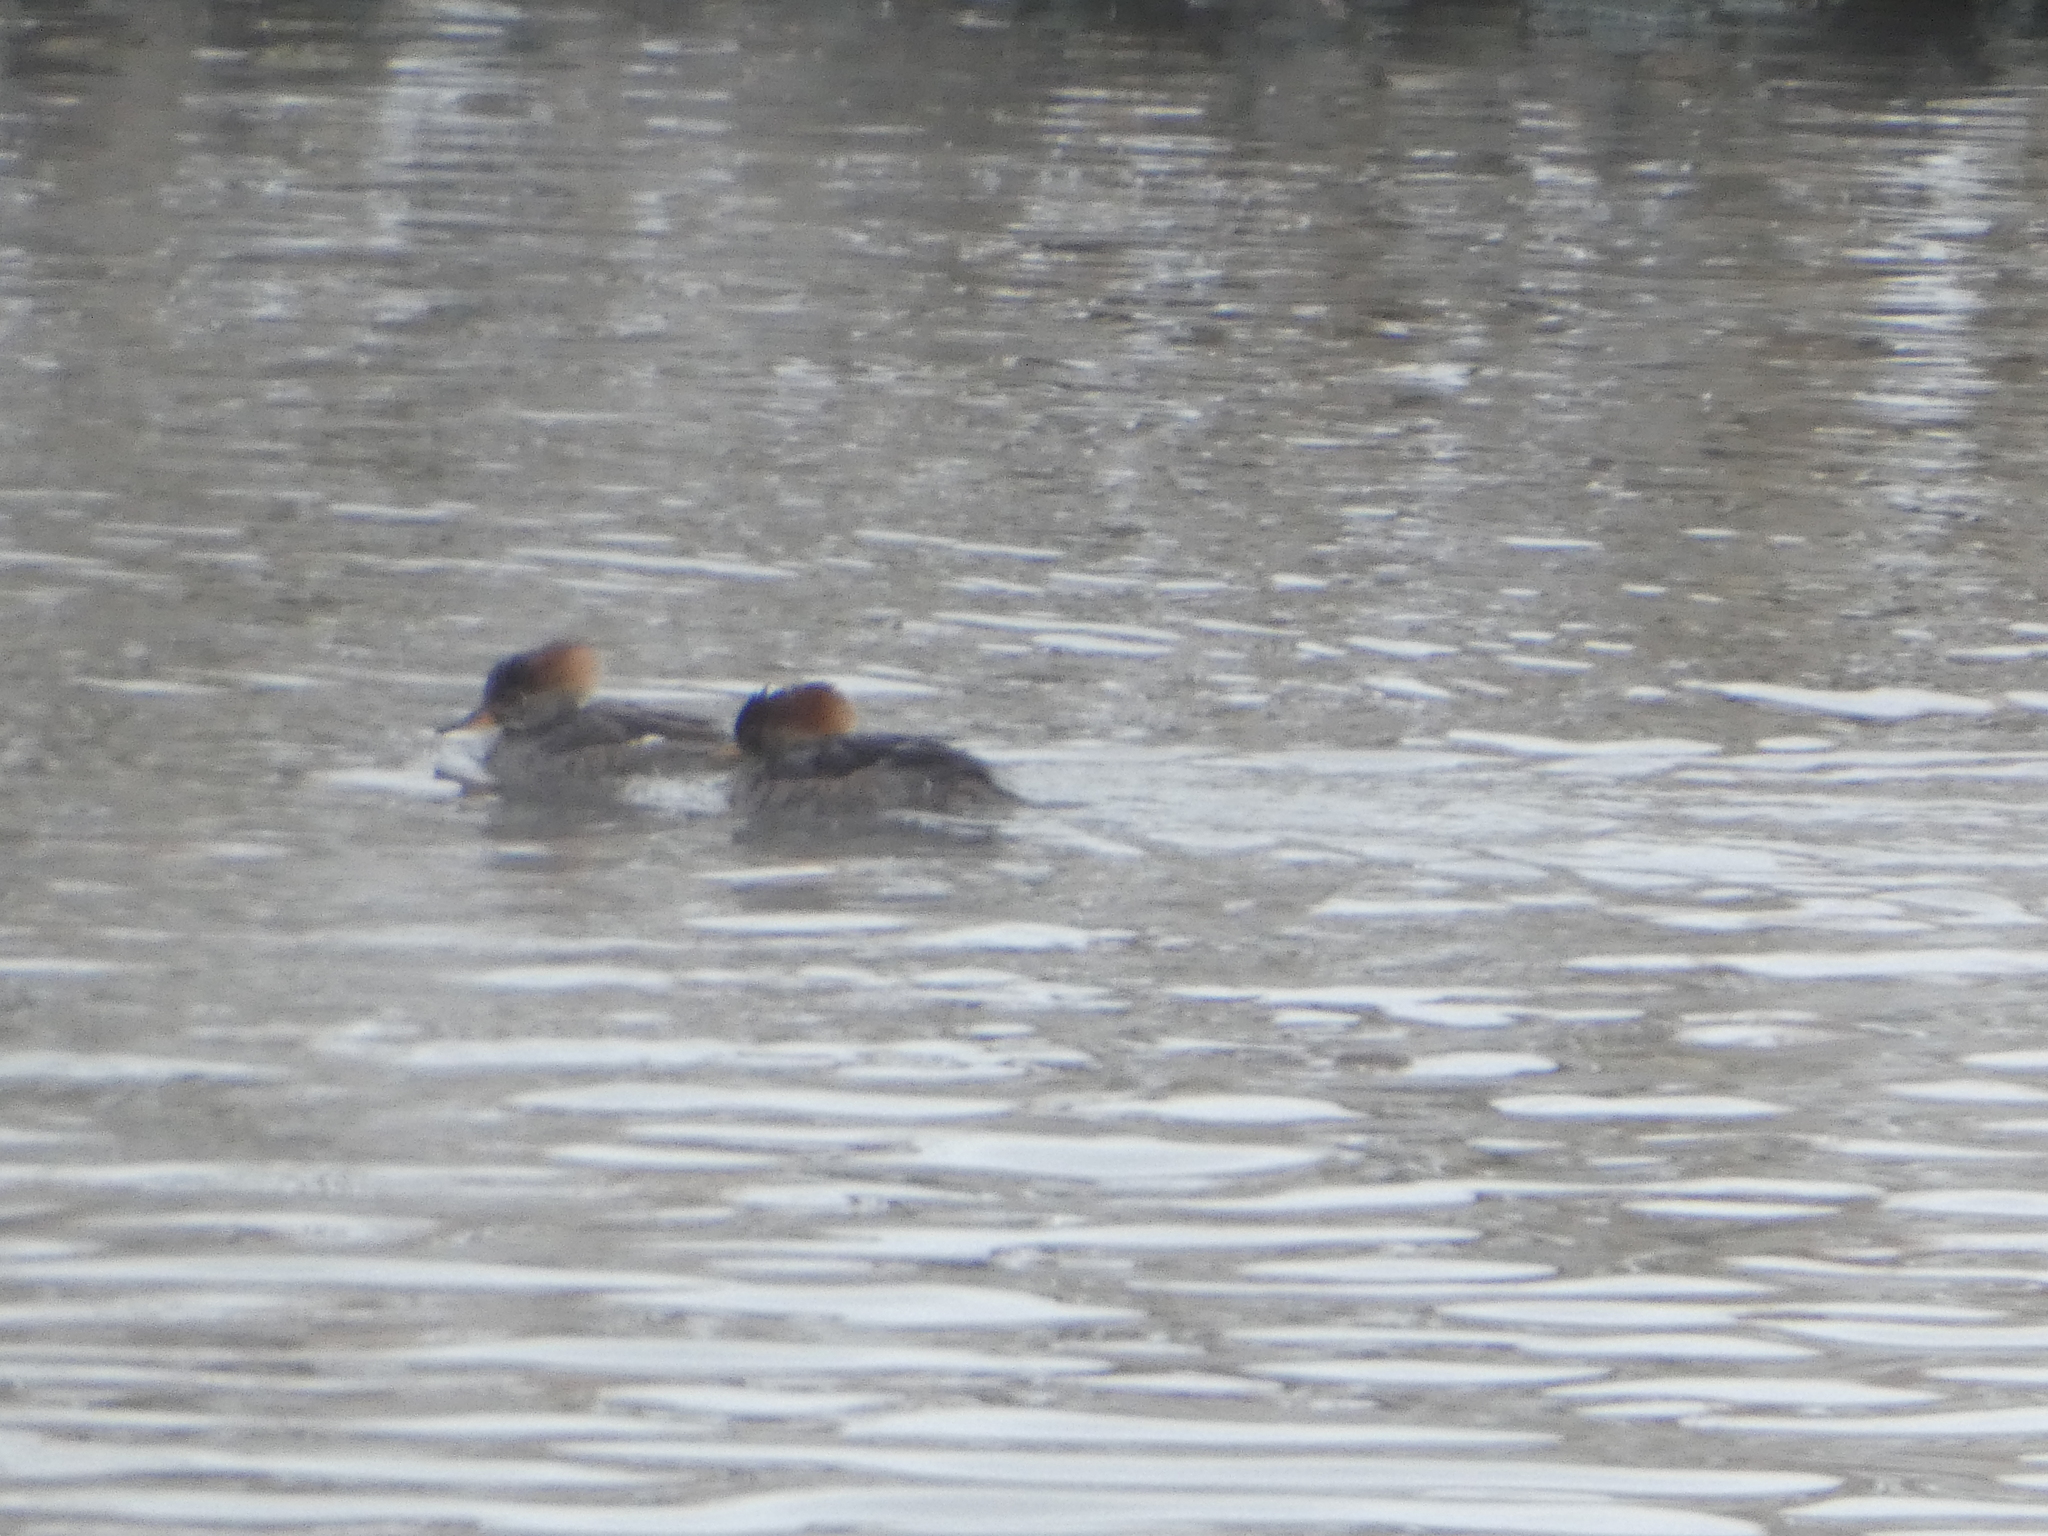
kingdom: Animalia
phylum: Chordata
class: Aves
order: Anseriformes
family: Anatidae
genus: Lophodytes
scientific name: Lophodytes cucullatus
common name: Hooded merganser
